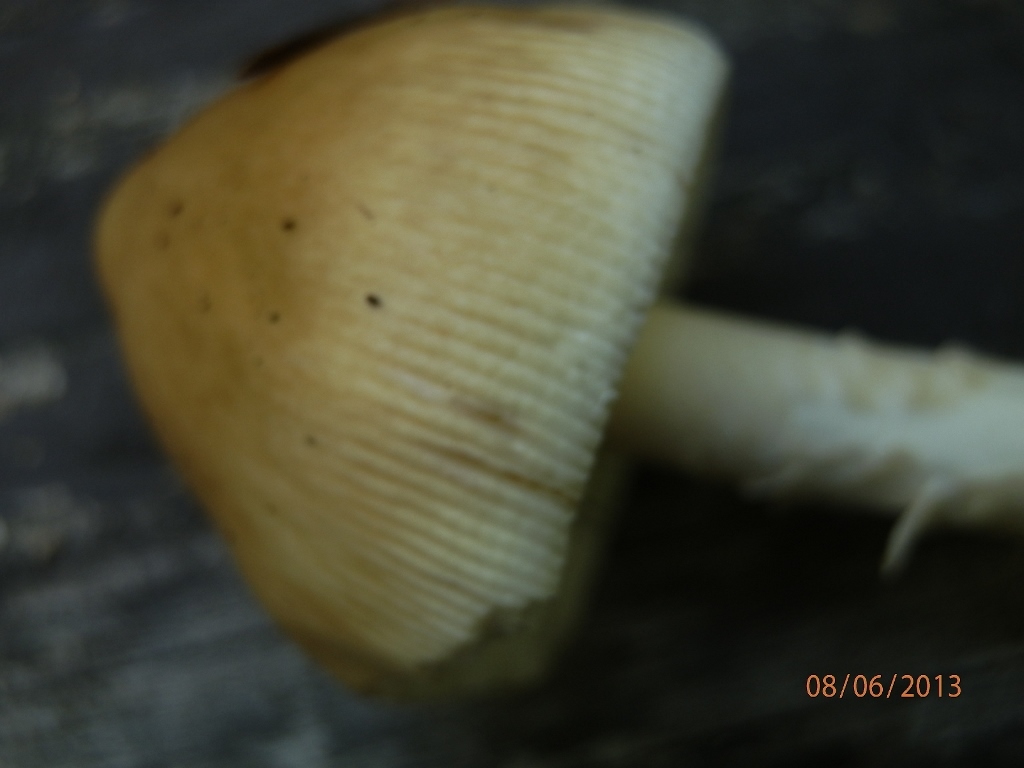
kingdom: Fungi
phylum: Basidiomycota
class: Agaricomycetes
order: Agaricales
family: Amanitaceae
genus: Amanita
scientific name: Amanita sinicoflava
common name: Mandarin yellow ringless amanita
